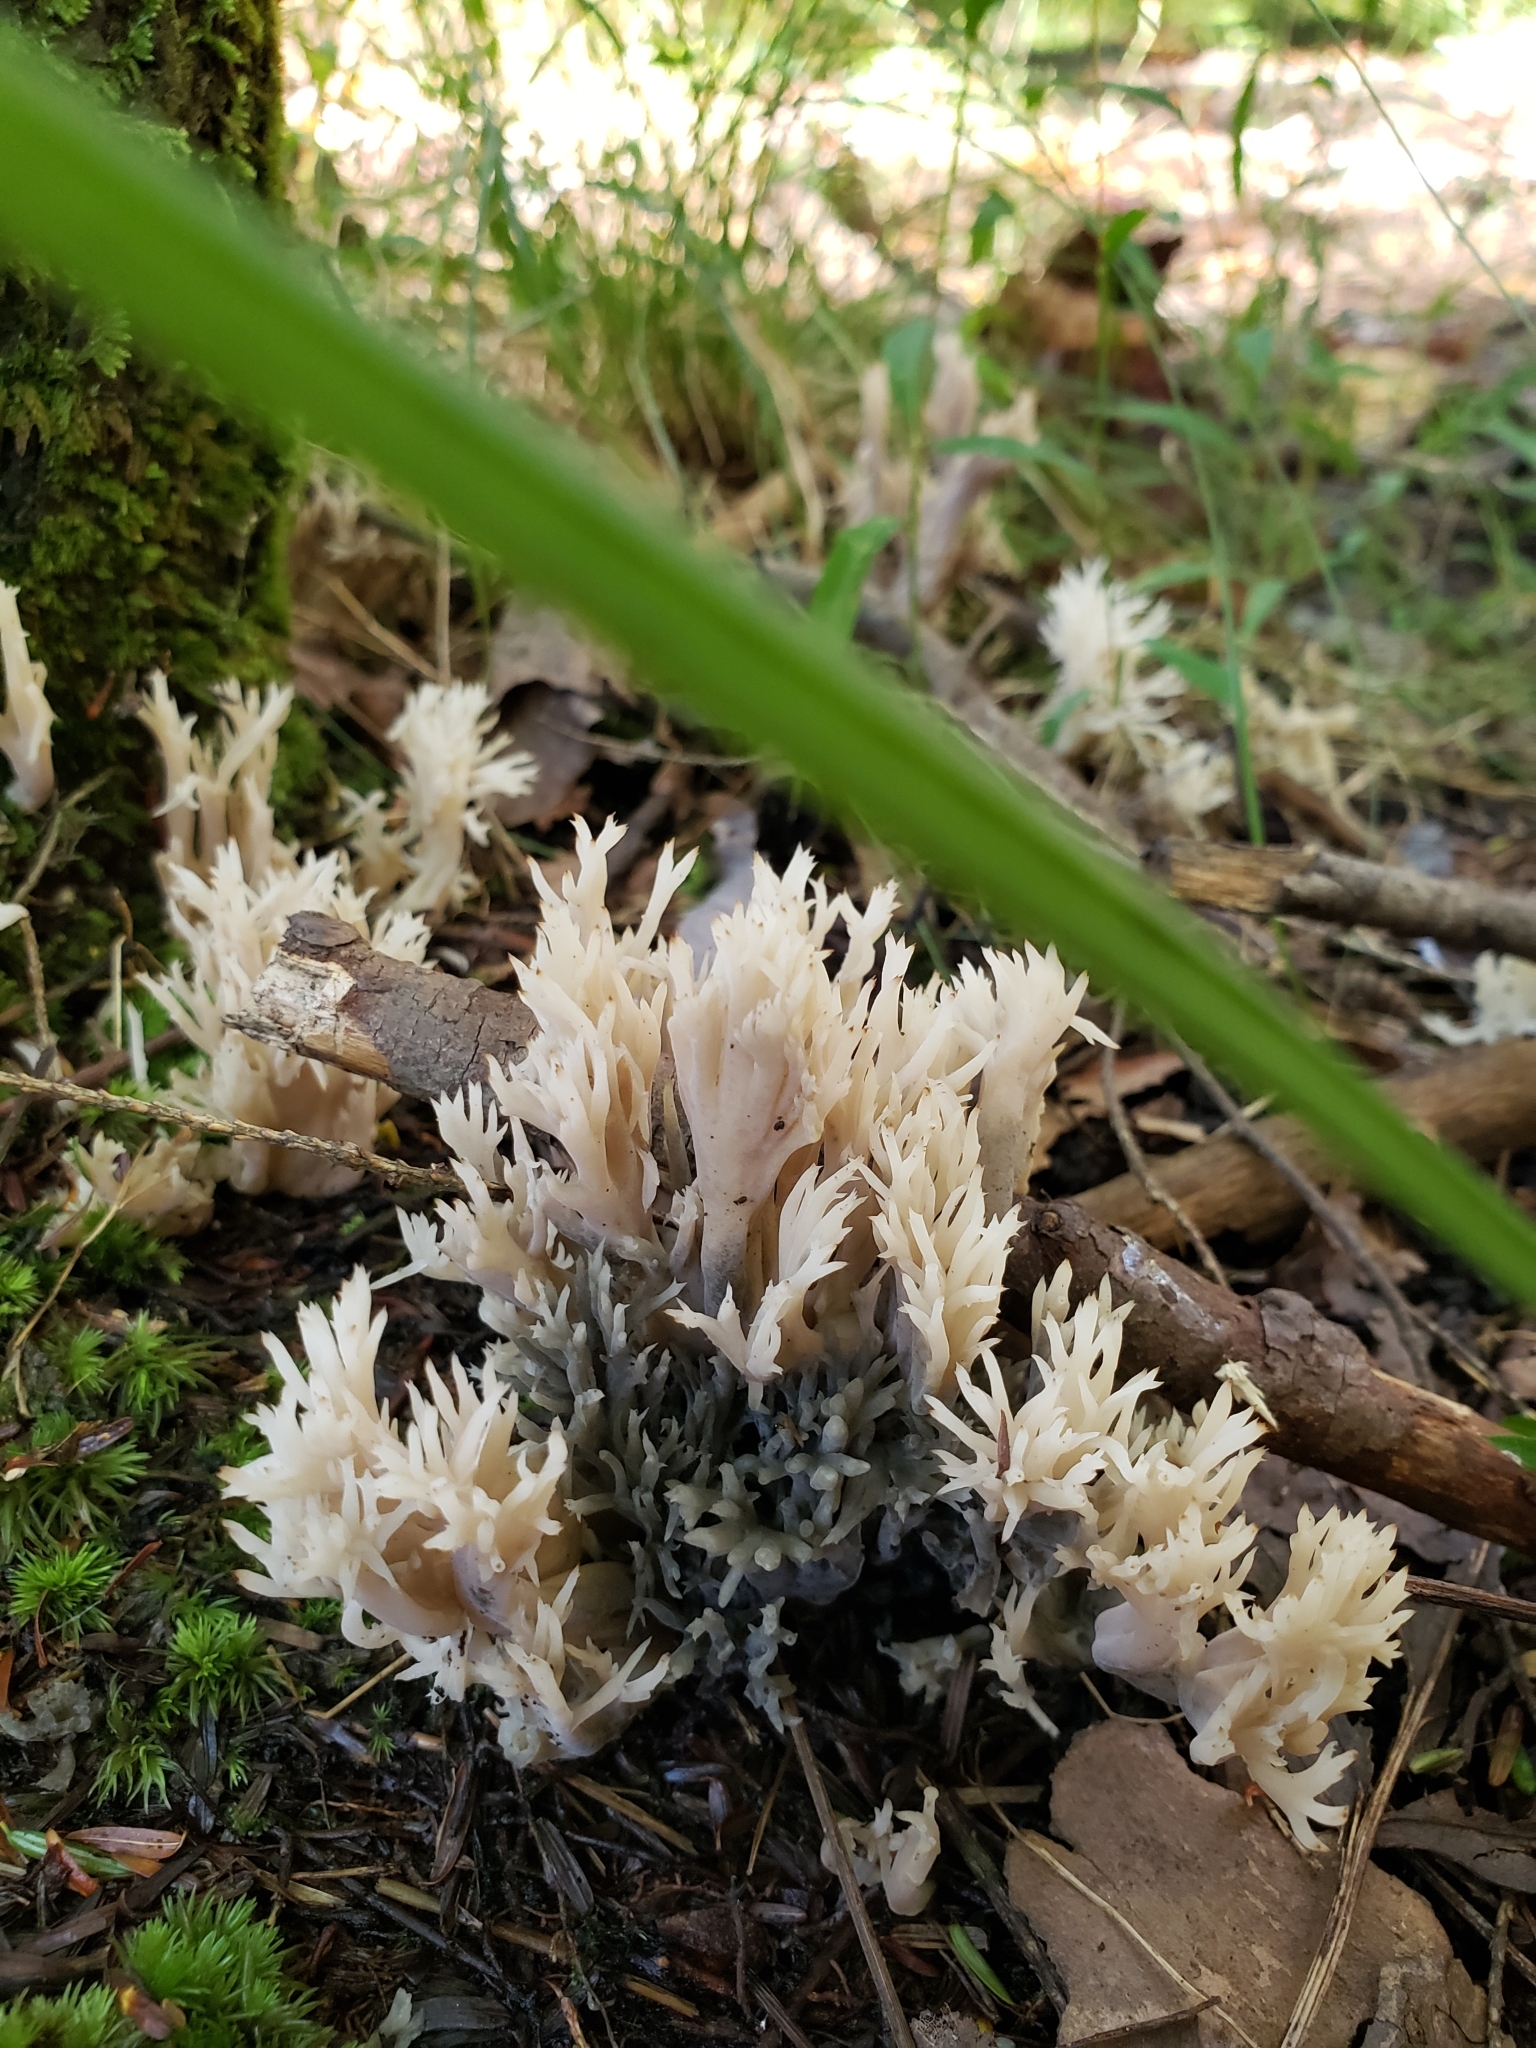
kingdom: Fungi
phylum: Basidiomycota
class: Agaricomycetes
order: Cantharellales
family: Hydnaceae
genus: Clavulina
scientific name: Clavulina coralloides
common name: Crested coral
